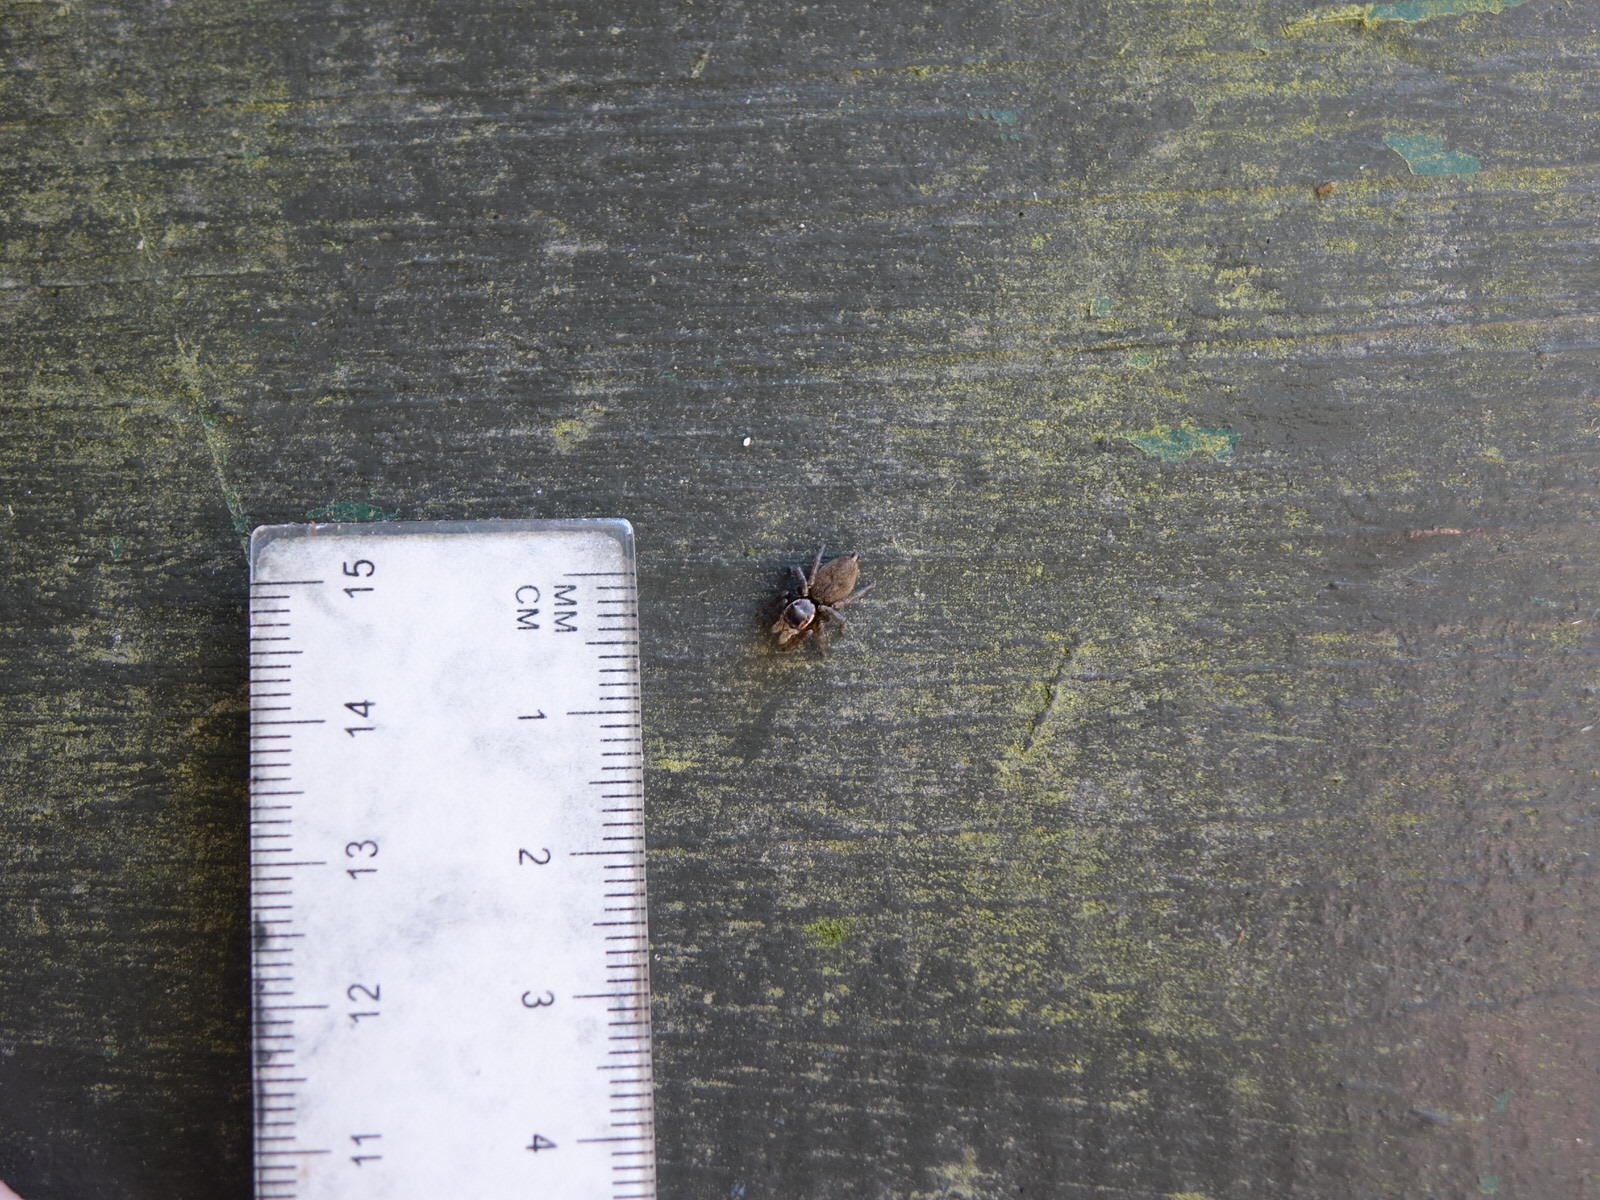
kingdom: Animalia
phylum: Arthropoda
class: Arachnida
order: Araneae
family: Salticidae
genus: Maratus
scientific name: Maratus griseus
